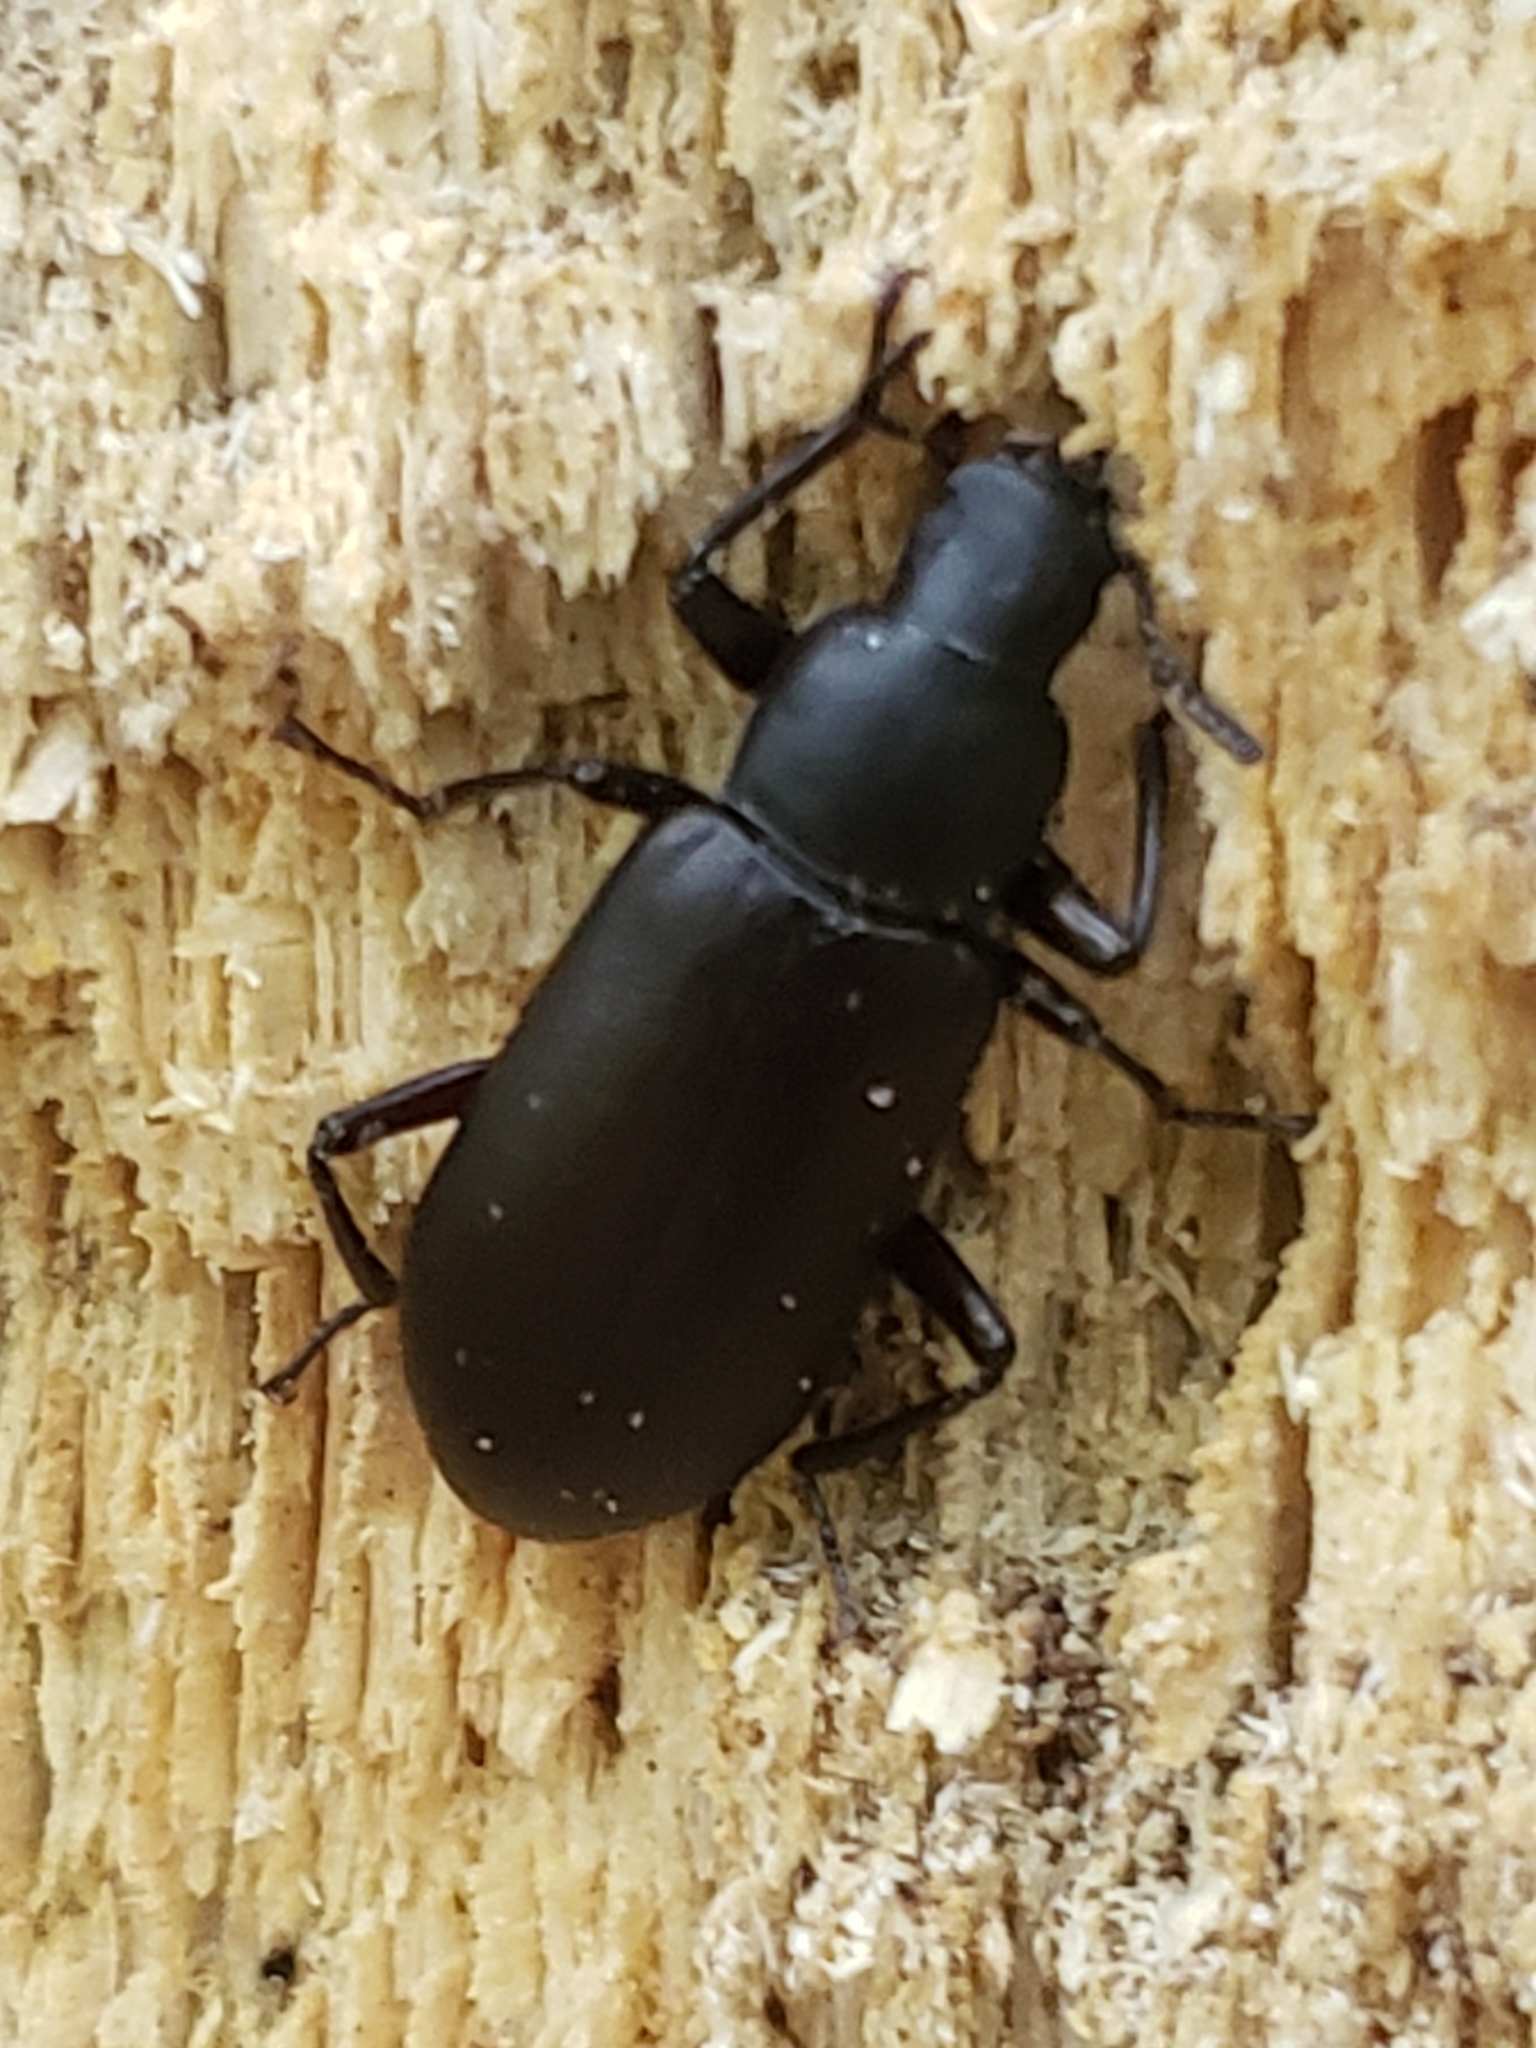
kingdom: Animalia
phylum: Arthropoda
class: Insecta
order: Coleoptera
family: Tenebrionidae
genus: Alobates
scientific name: Alobates
